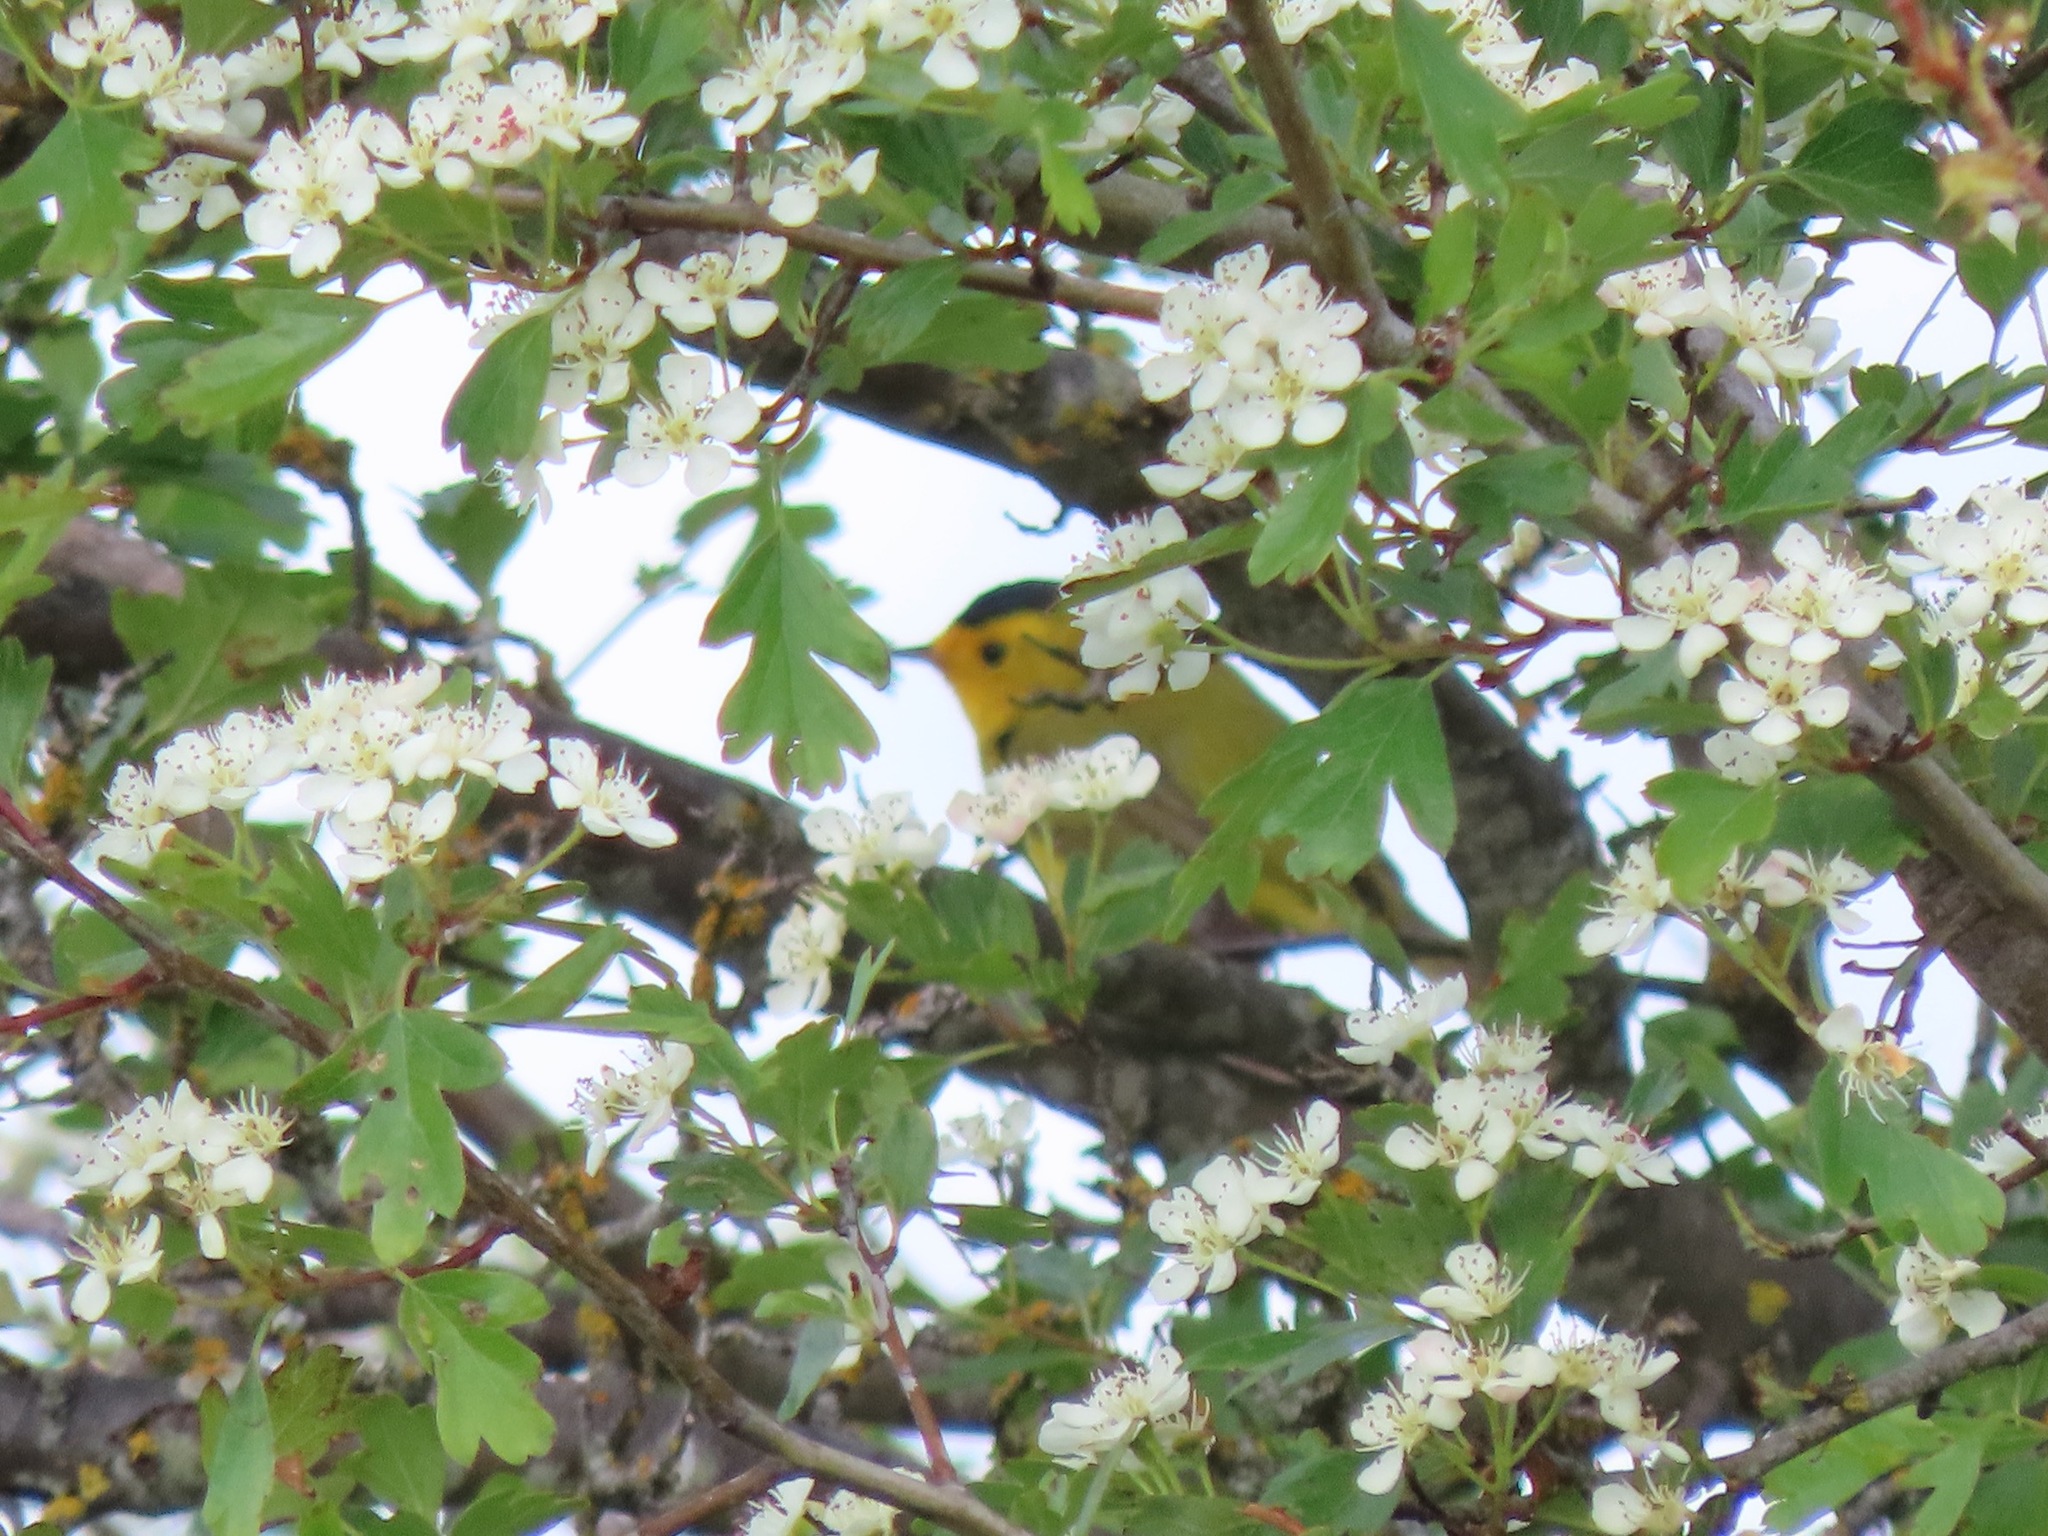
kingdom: Animalia
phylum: Chordata
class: Aves
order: Passeriformes
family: Parulidae
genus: Cardellina
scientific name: Cardellina pusilla
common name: Wilson's warbler
